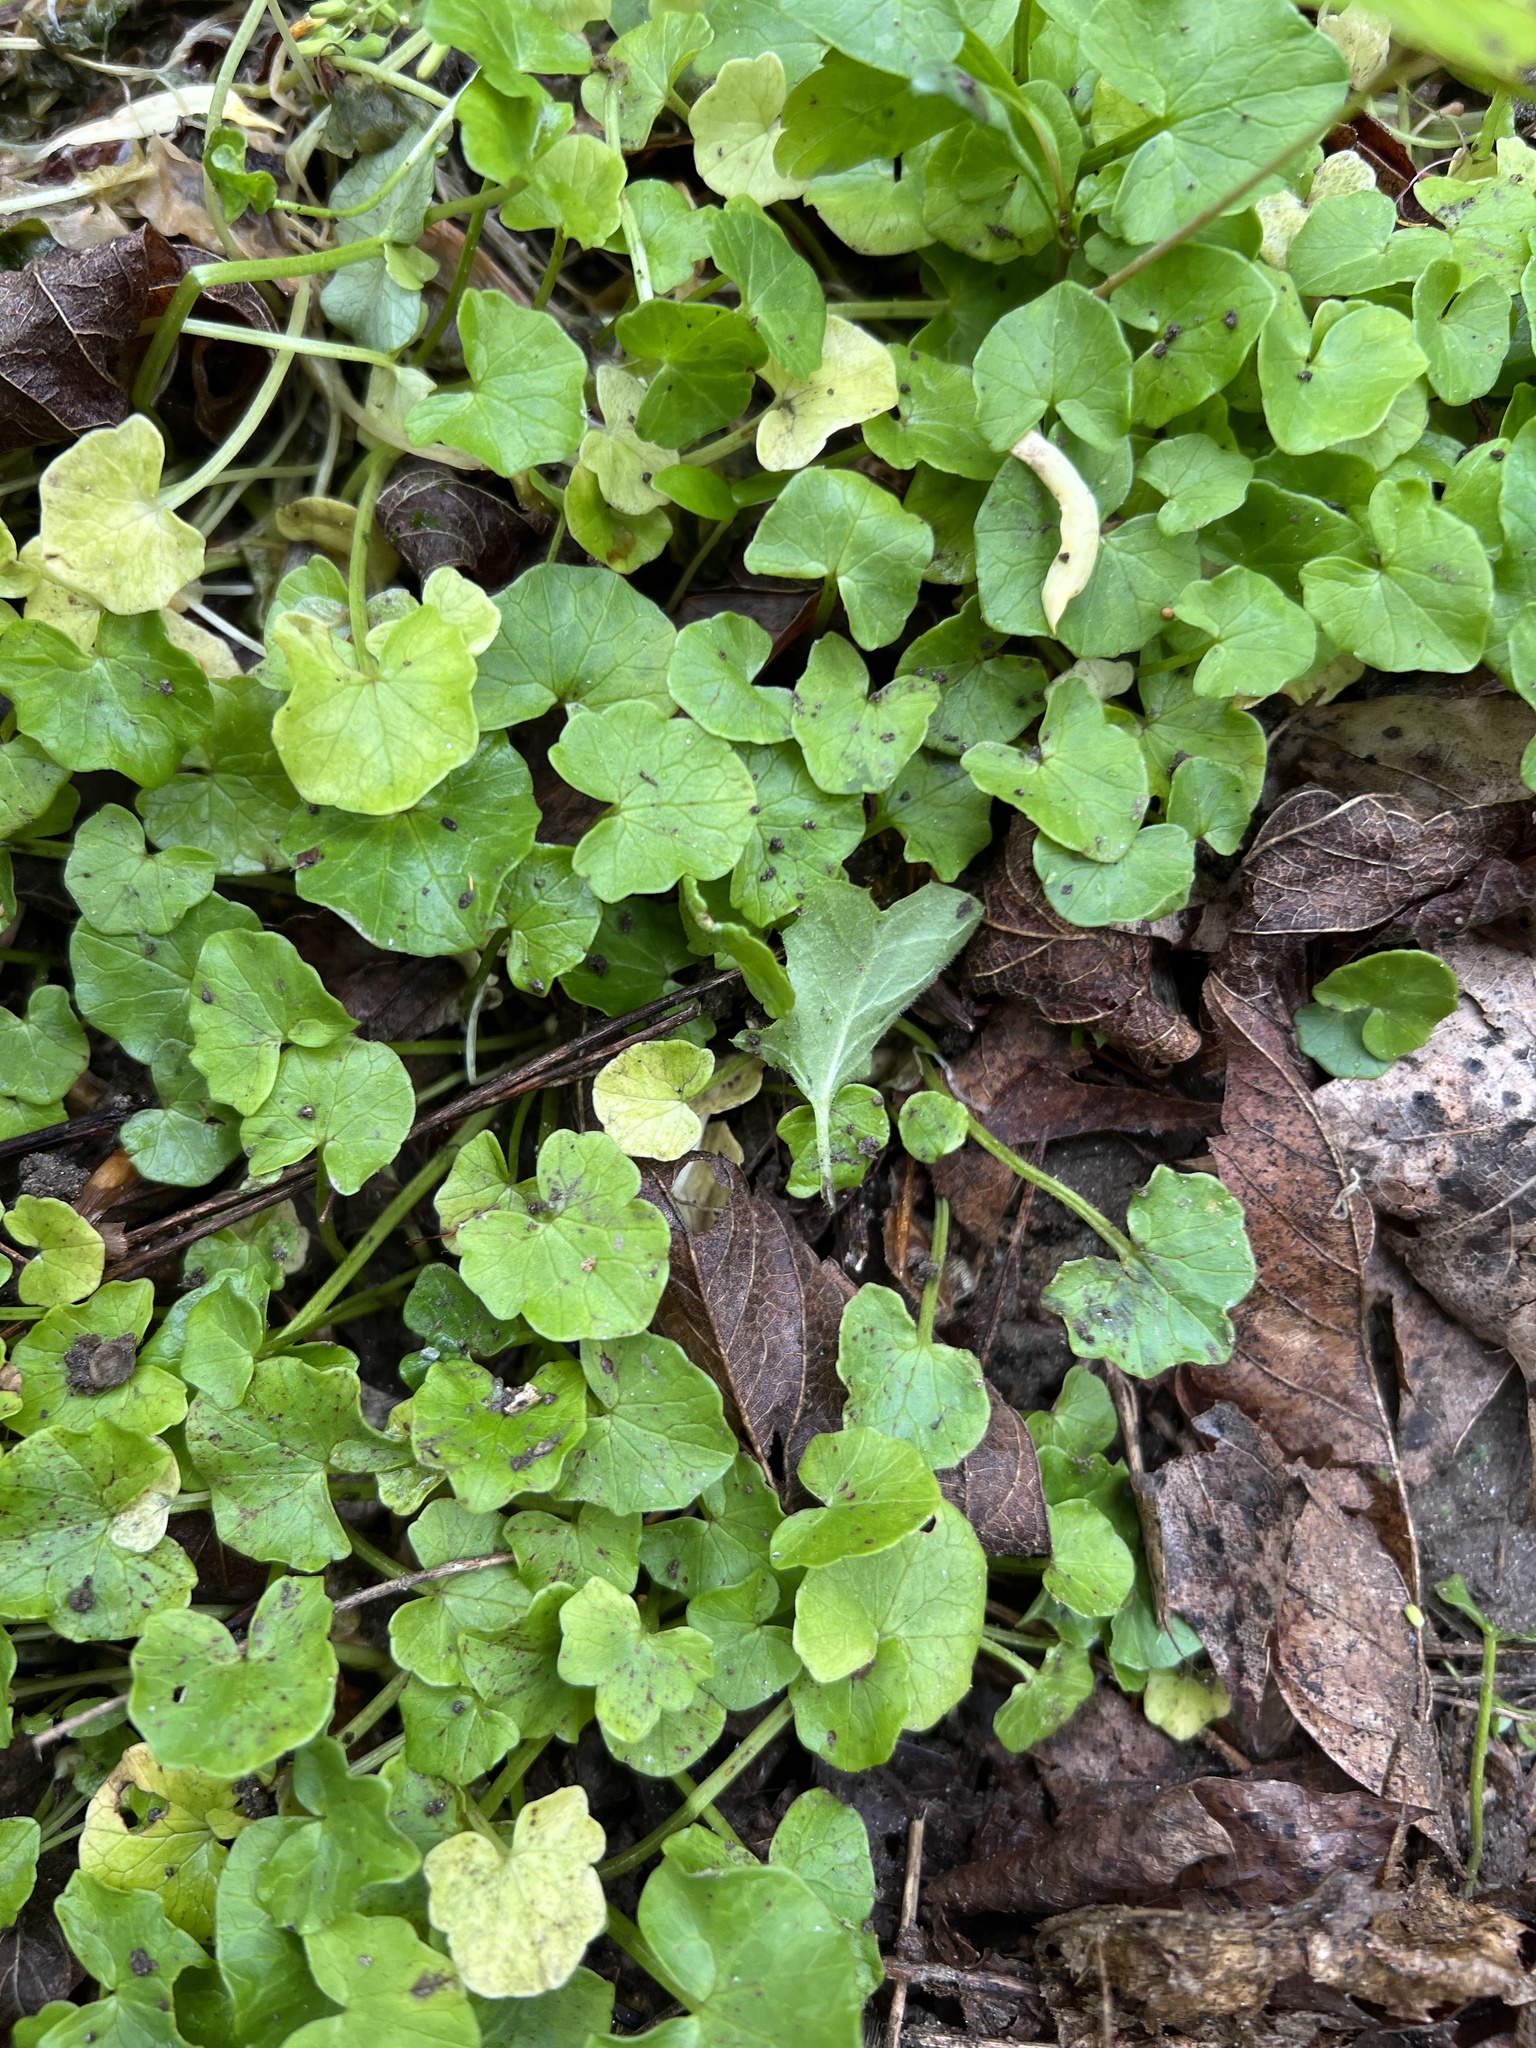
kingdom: Plantae
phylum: Tracheophyta
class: Magnoliopsida
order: Ranunculales
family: Ranunculaceae
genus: Ficaria
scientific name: Ficaria verna
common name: Lesser celandine
